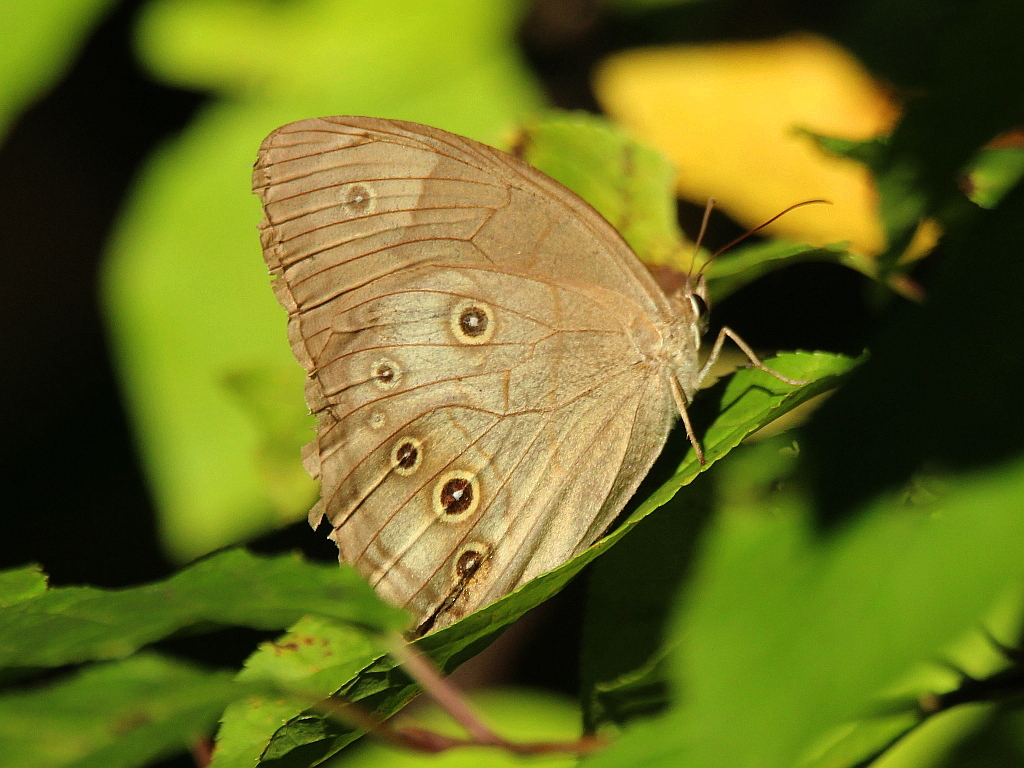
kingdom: Animalia
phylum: Arthropoda
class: Insecta
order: Lepidoptera
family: Nymphalidae
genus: Ninguta
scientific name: Ninguta schrenckii
